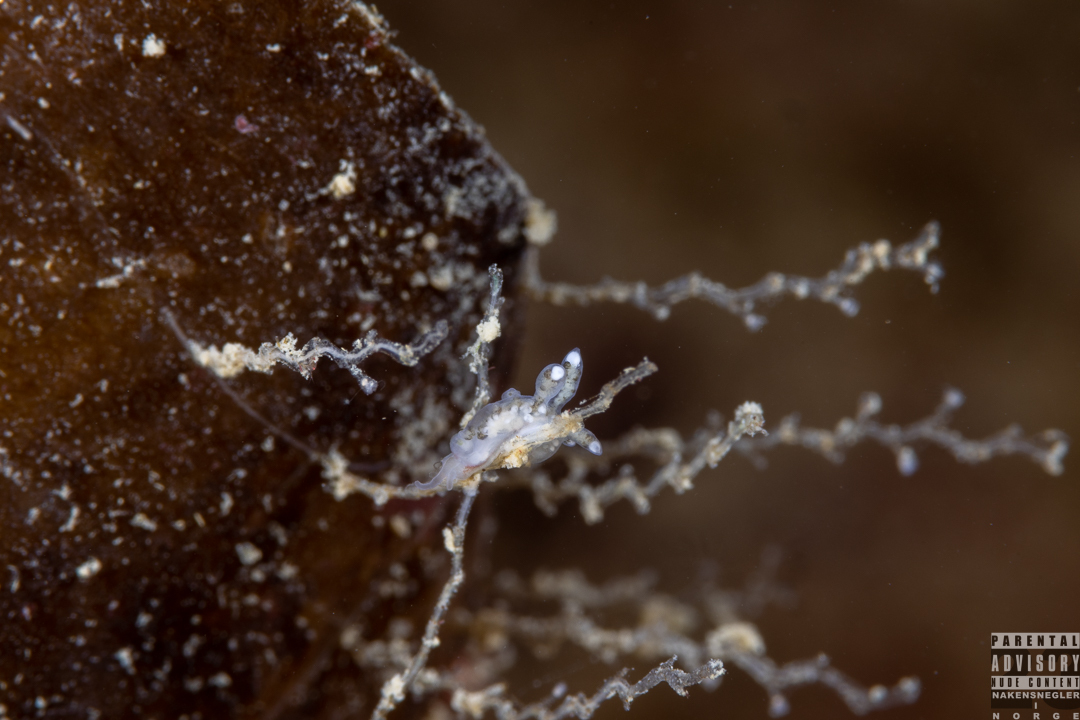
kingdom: Animalia
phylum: Mollusca
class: Gastropoda
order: Nudibranchia
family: Tergipedidae
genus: Tergipes
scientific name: Tergipes tergipes
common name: Johnston's balloon eolis
